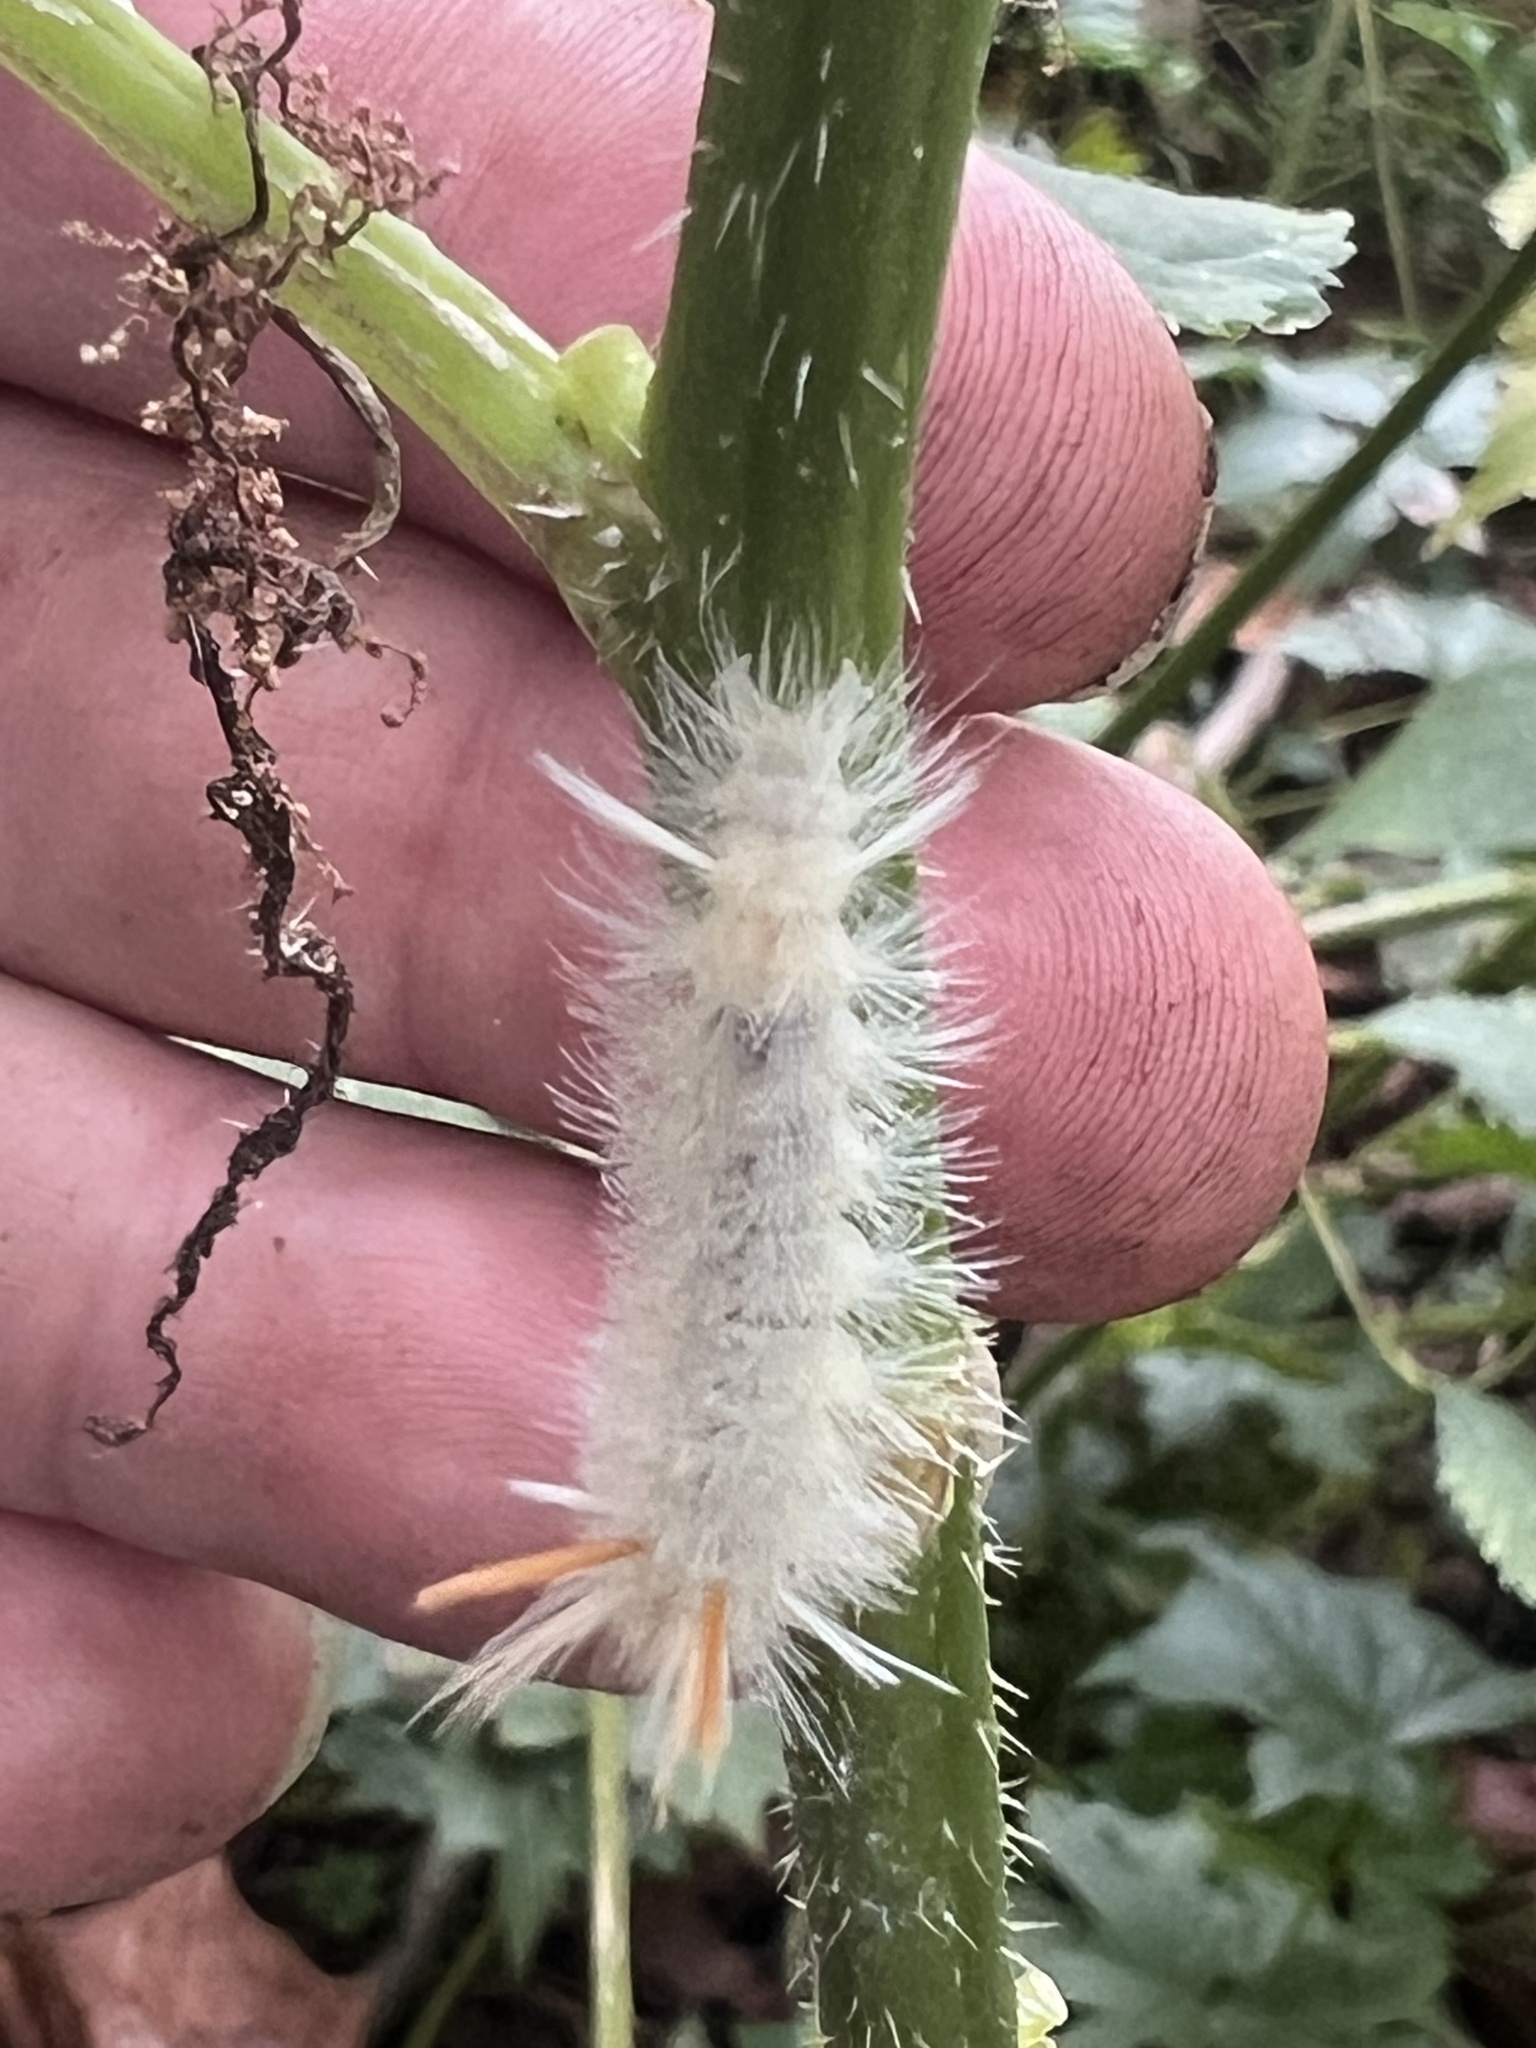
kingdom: Animalia
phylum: Arthropoda
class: Insecta
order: Lepidoptera
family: Erebidae
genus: Halysidota
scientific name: Halysidota harrisii
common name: Sycamore tussock moth
